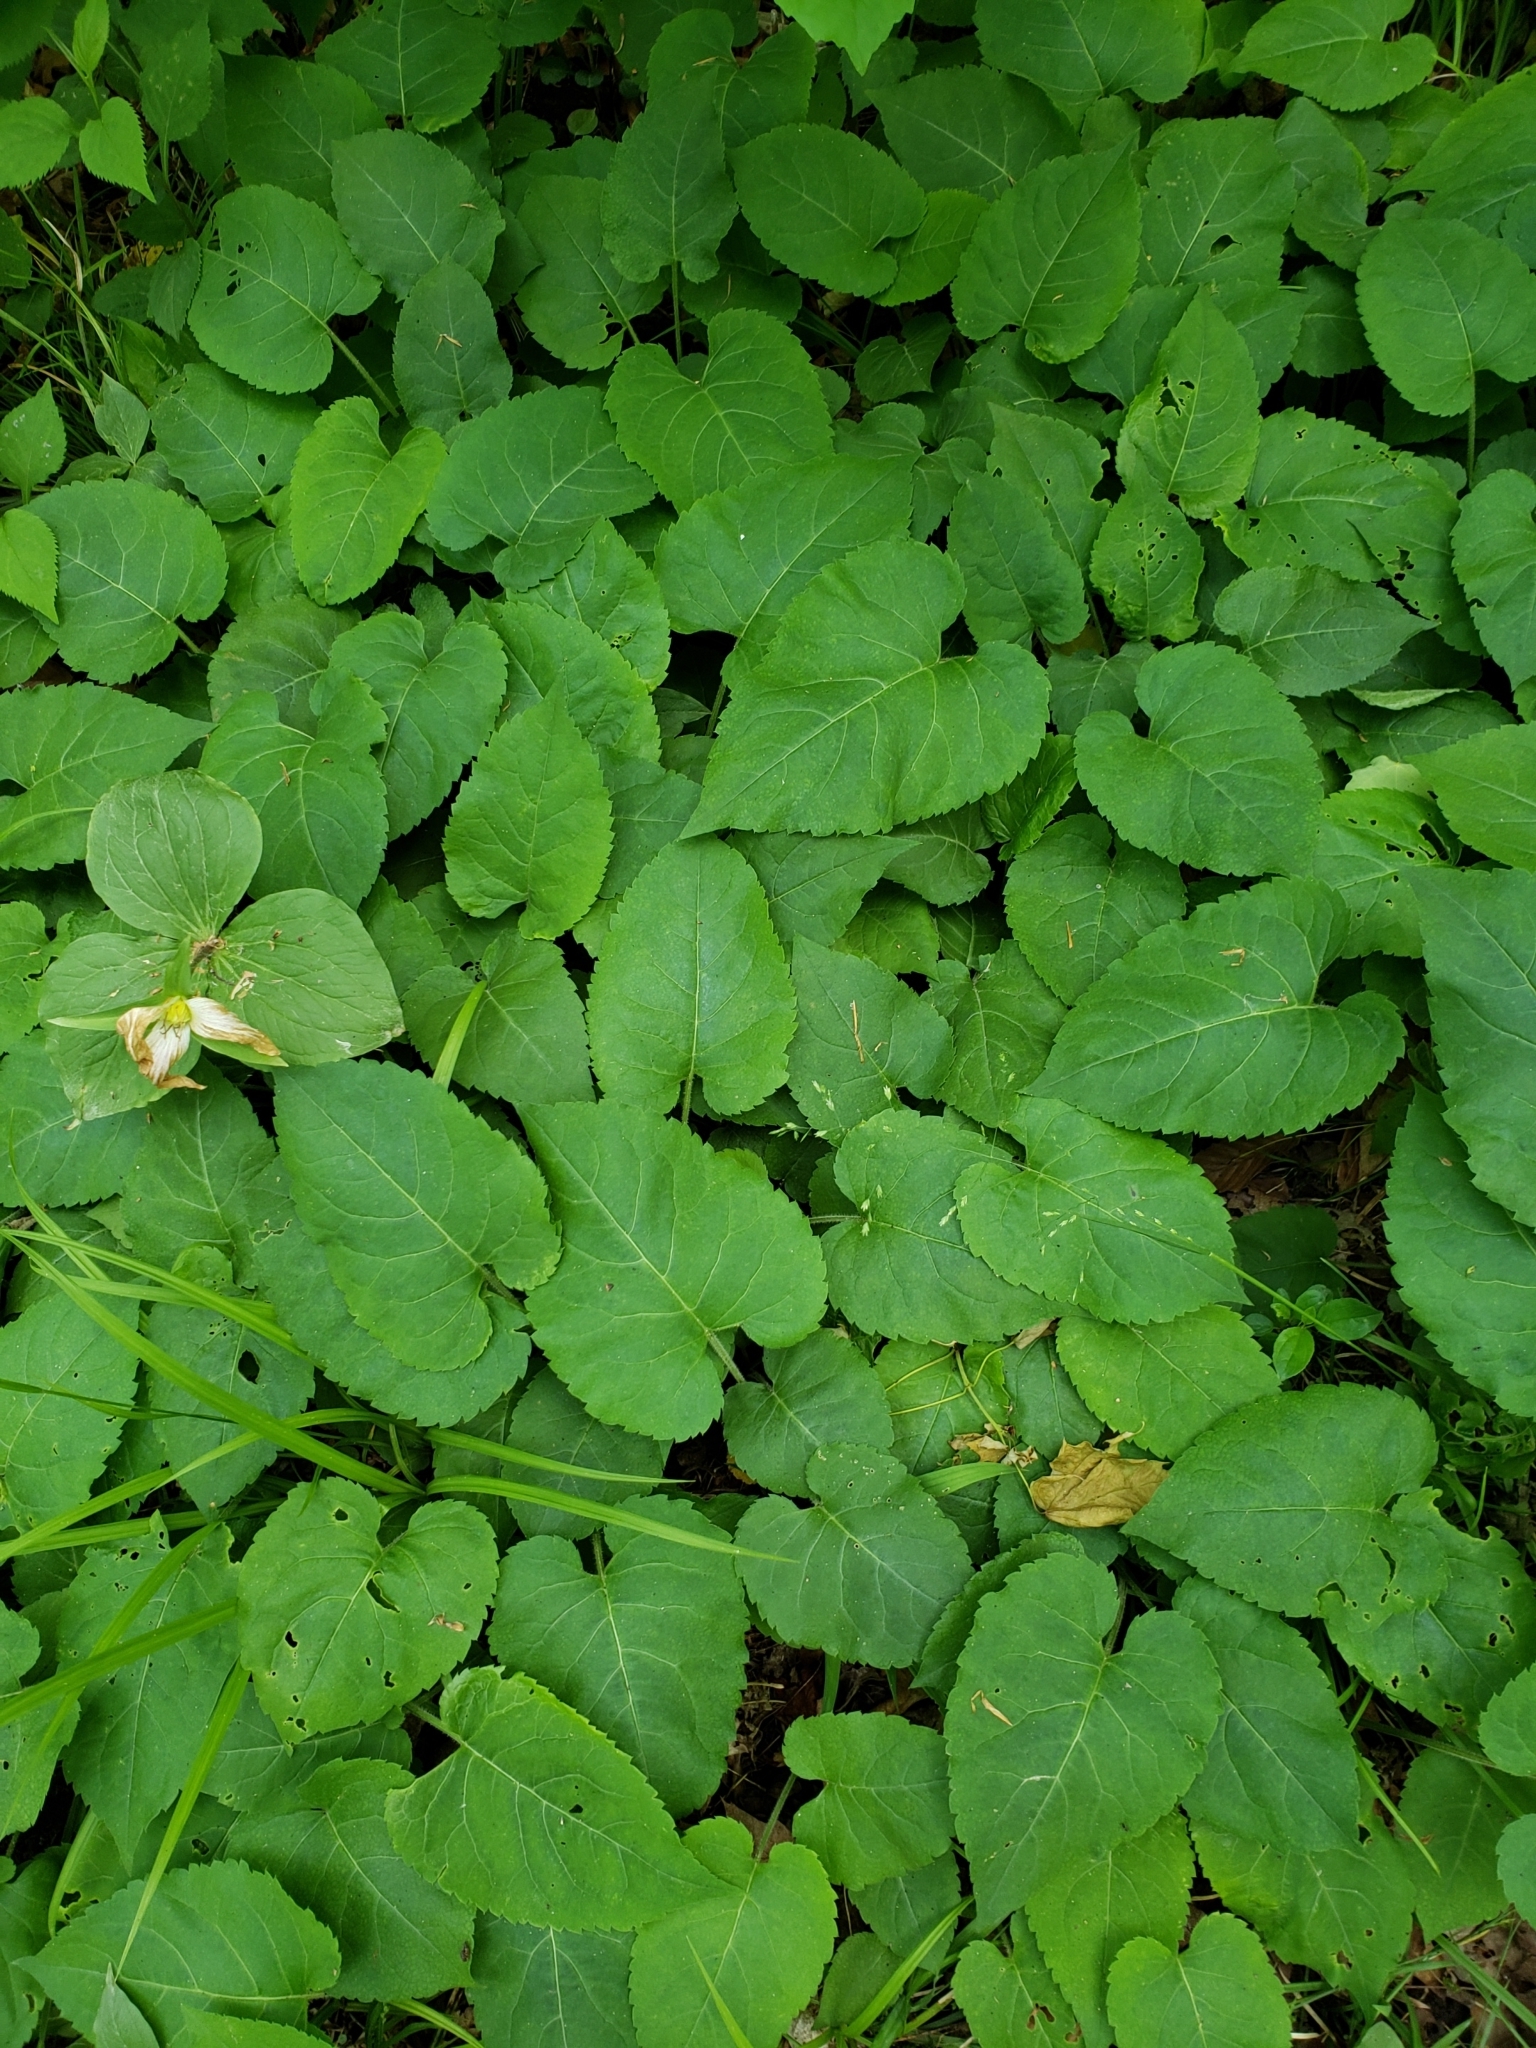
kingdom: Plantae
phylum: Tracheophyta
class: Magnoliopsida
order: Asterales
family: Asteraceae
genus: Eurybia
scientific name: Eurybia macrophylla
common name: Big-leaved aster
